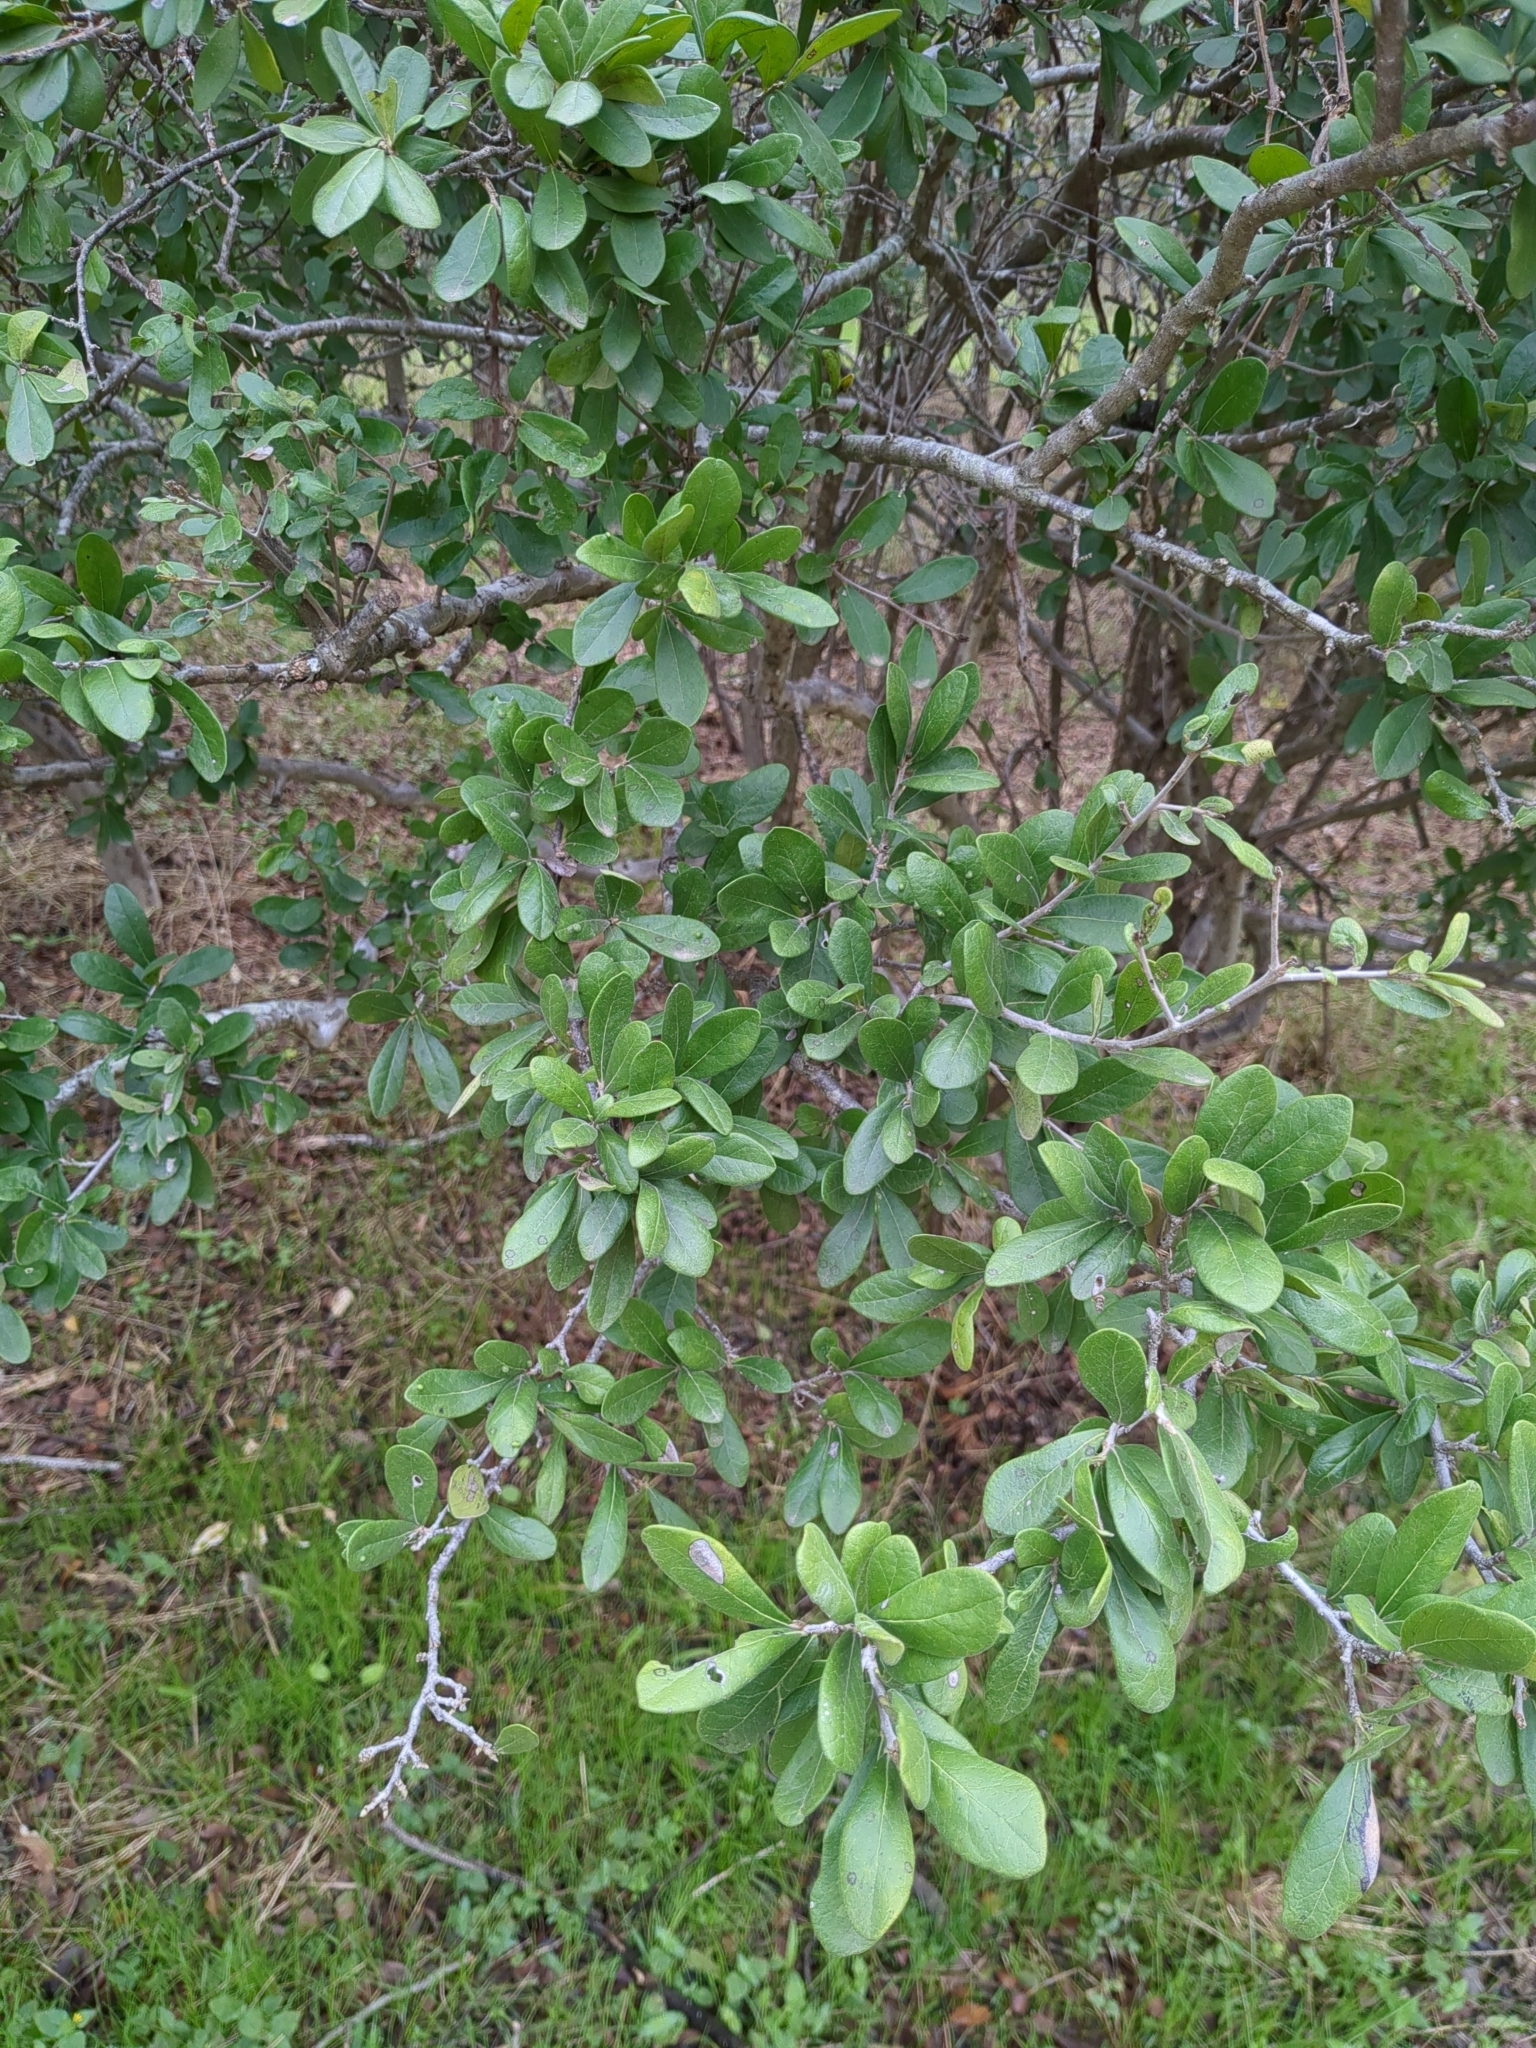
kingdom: Plantae
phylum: Tracheophyta
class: Magnoliopsida
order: Ericales
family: Ebenaceae
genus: Diospyros
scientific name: Diospyros texana
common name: Texas persimmon
